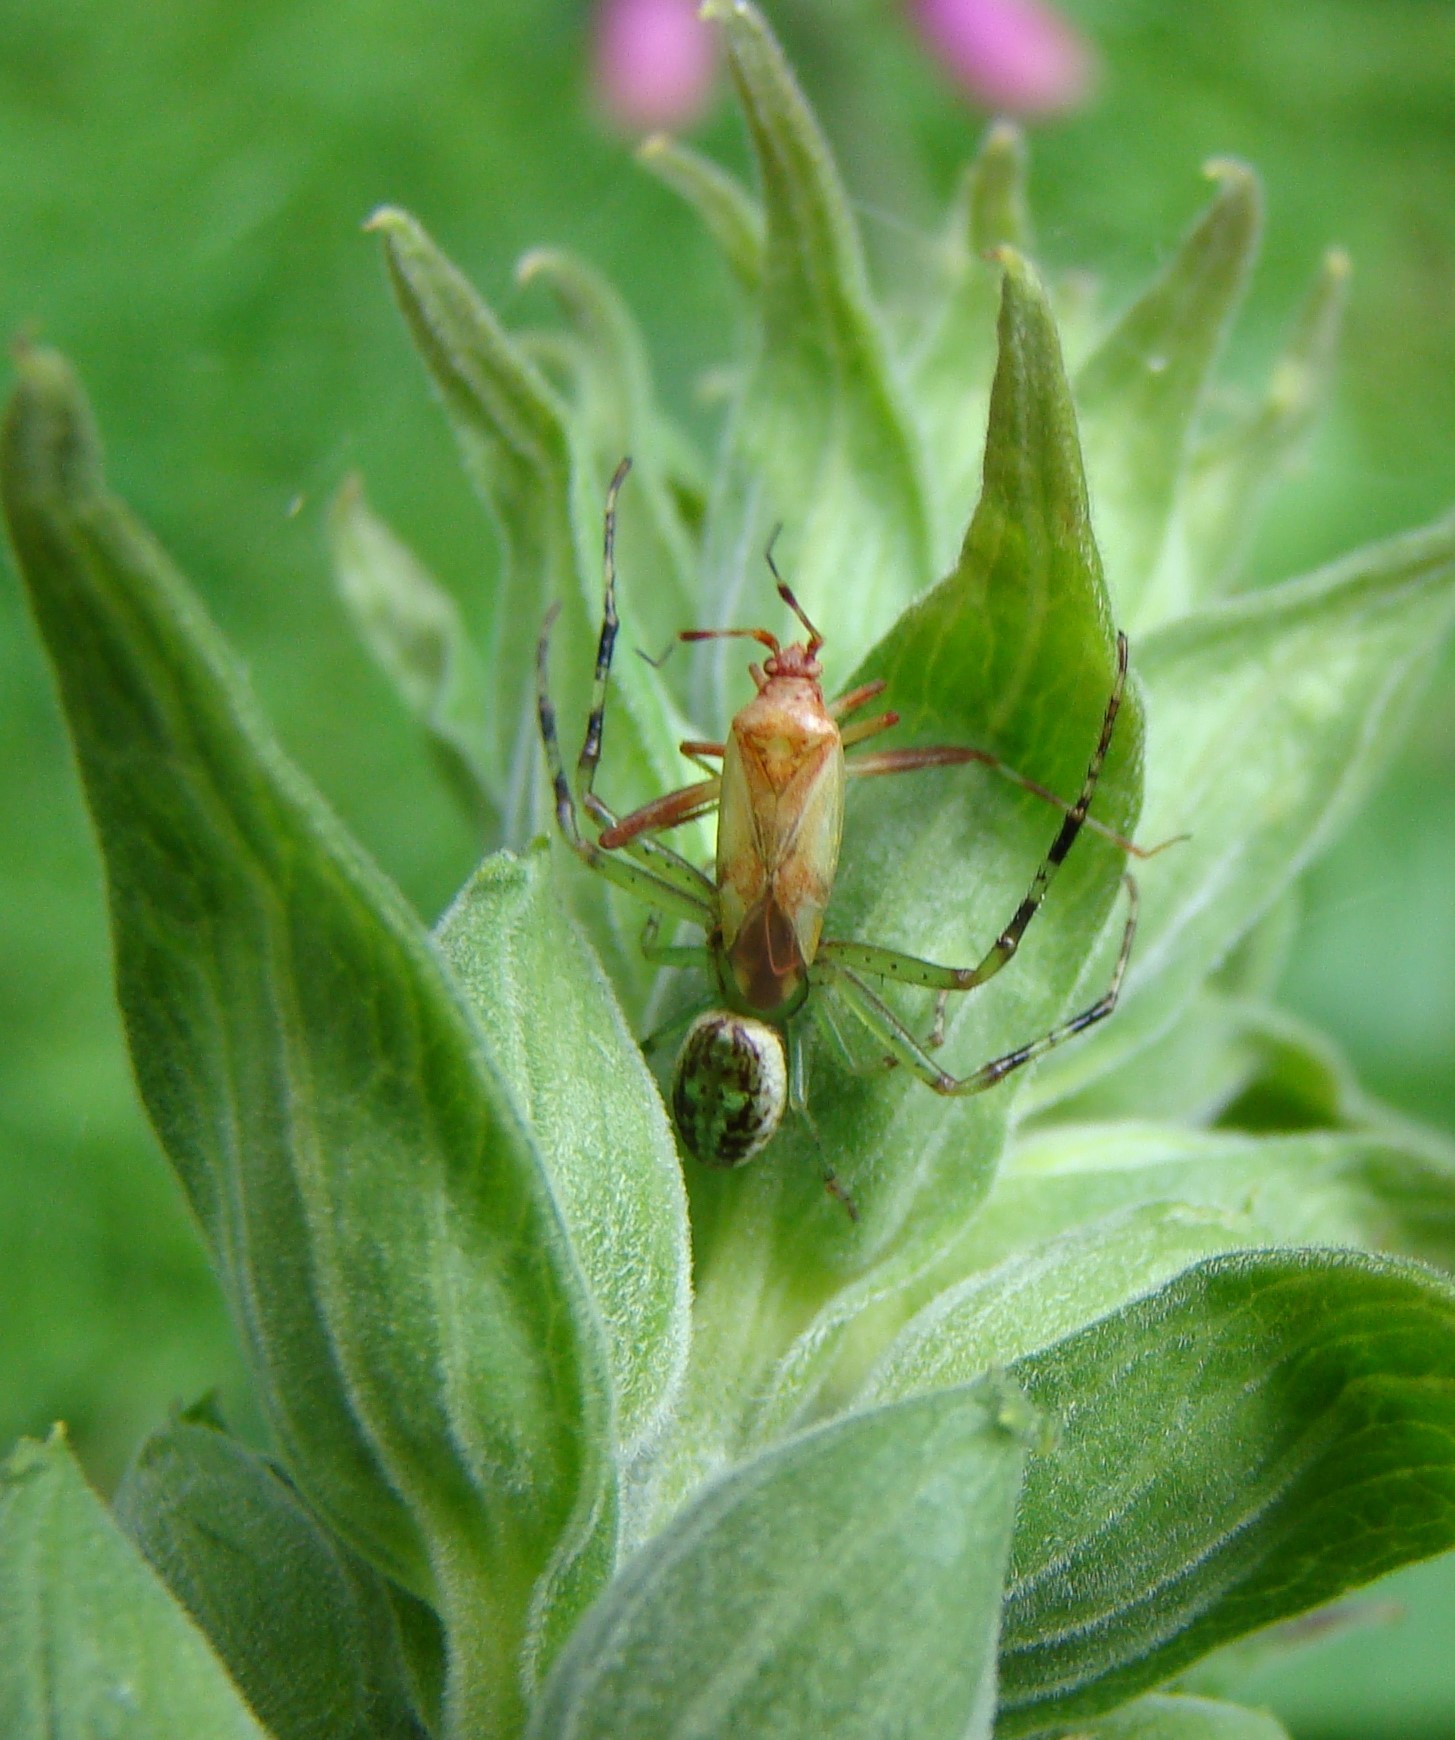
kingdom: Animalia
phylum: Arthropoda
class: Arachnida
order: Araneae
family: Thomisidae
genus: Diaea
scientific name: Diaea ambara
